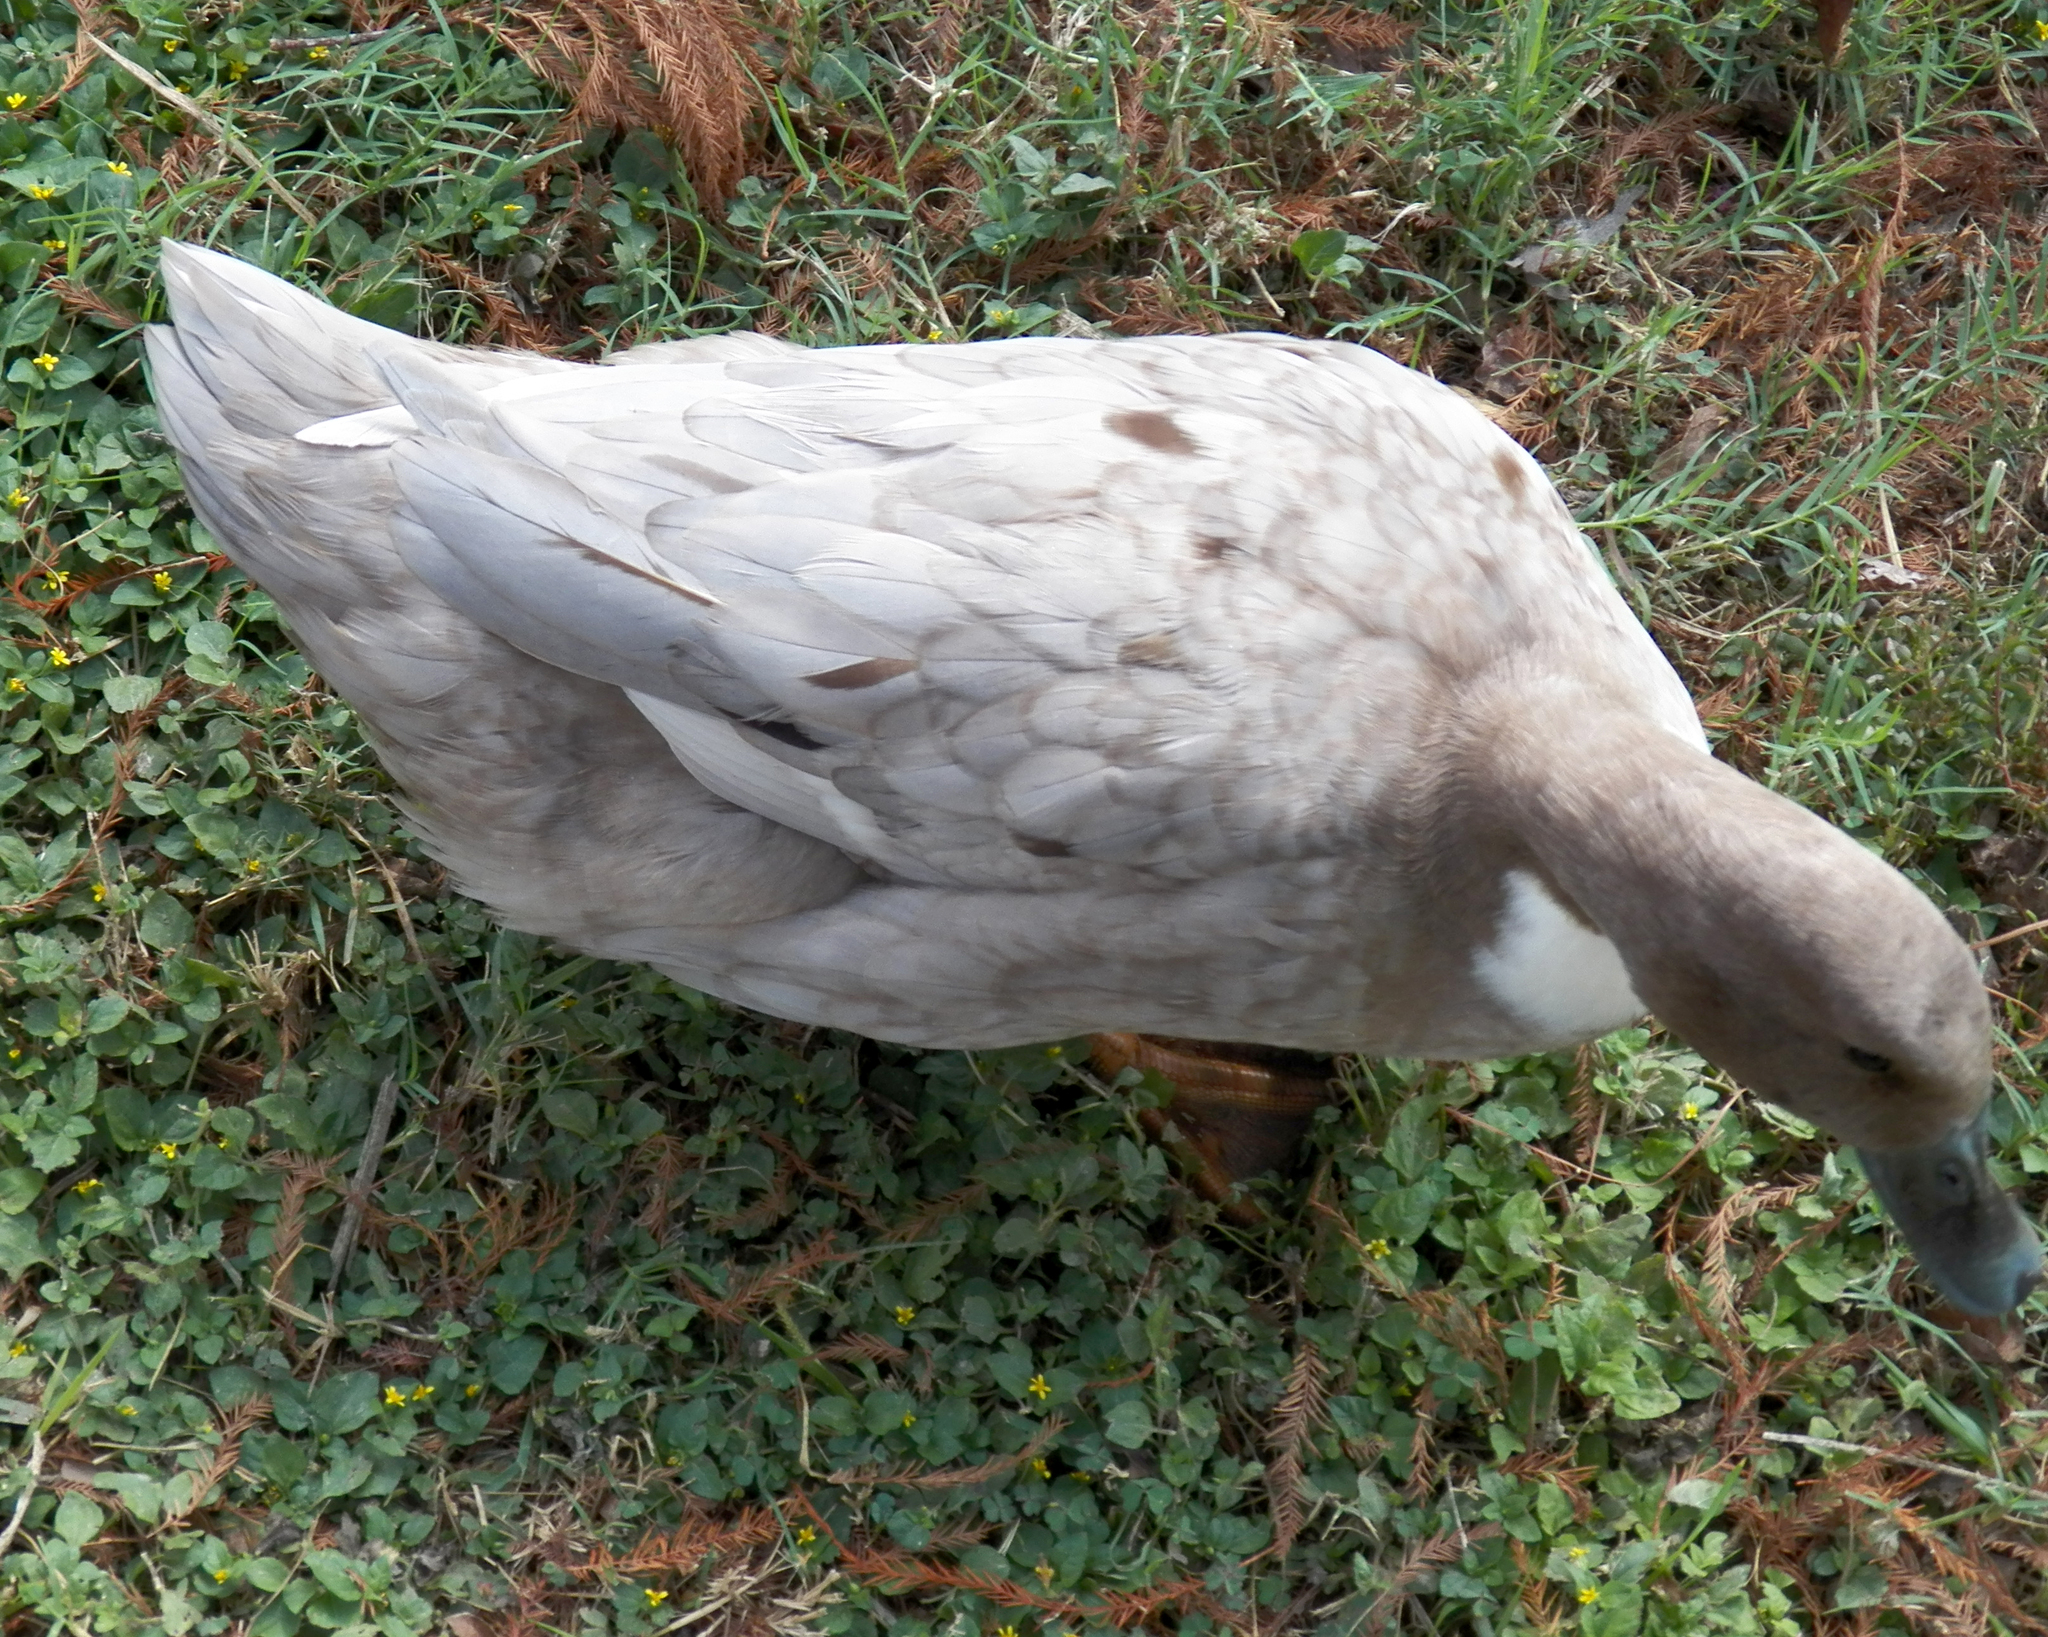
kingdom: Animalia
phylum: Chordata
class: Aves
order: Anseriformes
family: Anatidae
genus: Anas
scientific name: Anas platyrhynchos
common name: Mallard
